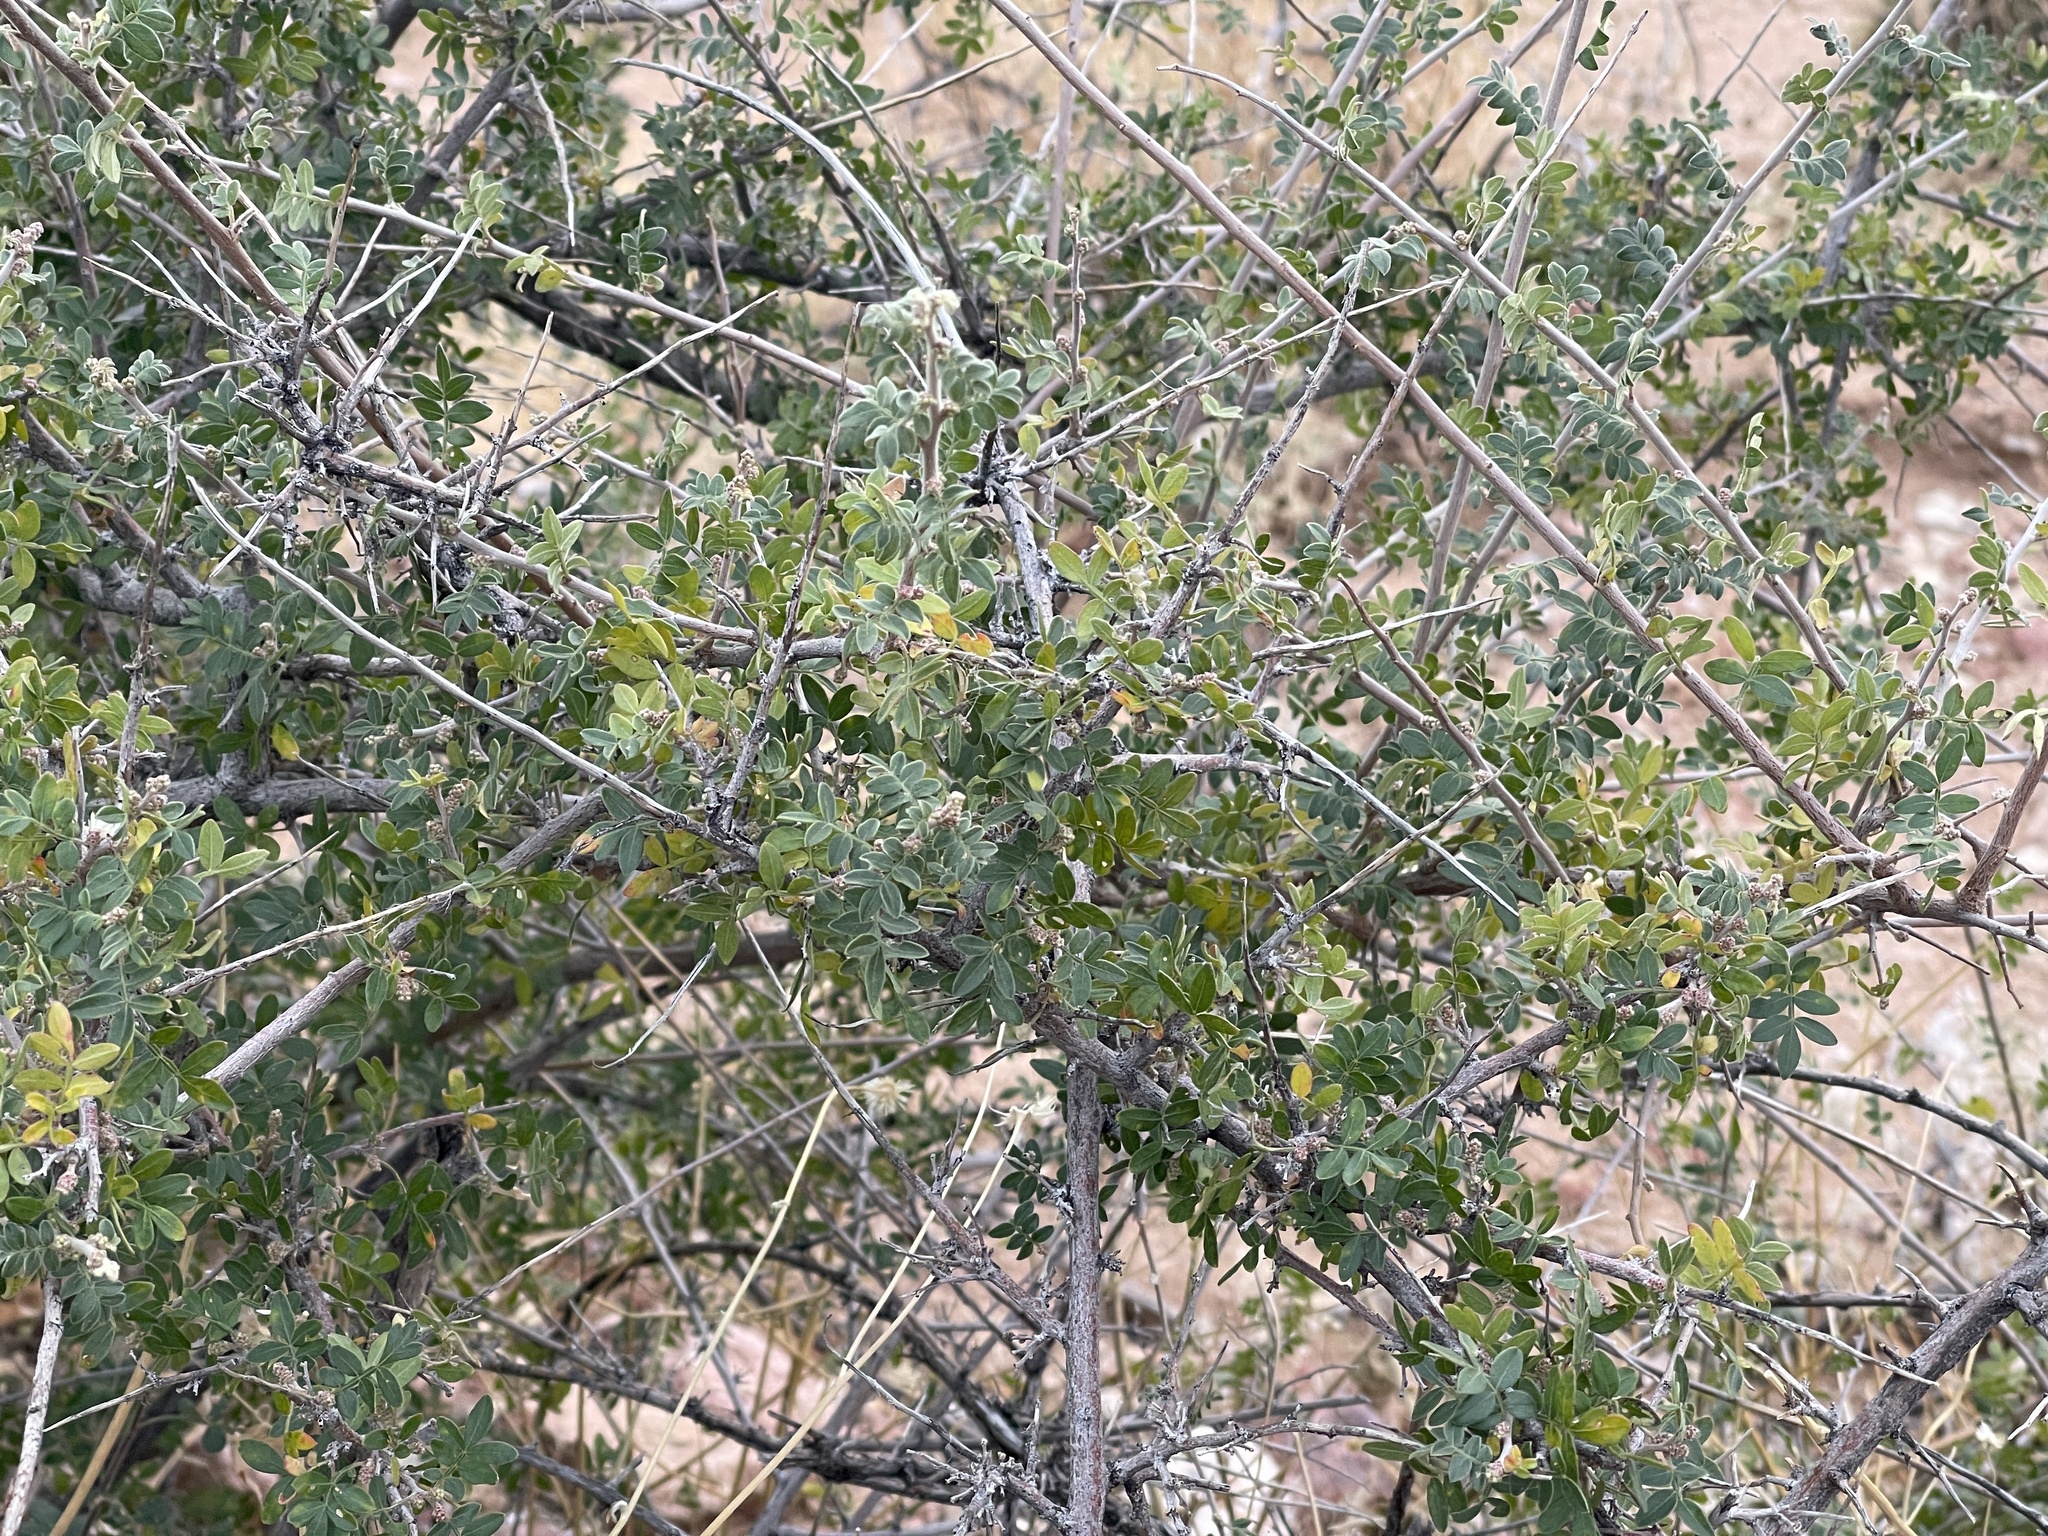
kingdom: Plantae
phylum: Tracheophyta
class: Magnoliopsida
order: Sapindales
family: Anacardiaceae
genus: Rhus
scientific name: Rhus microphylla
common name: Desert sumac
